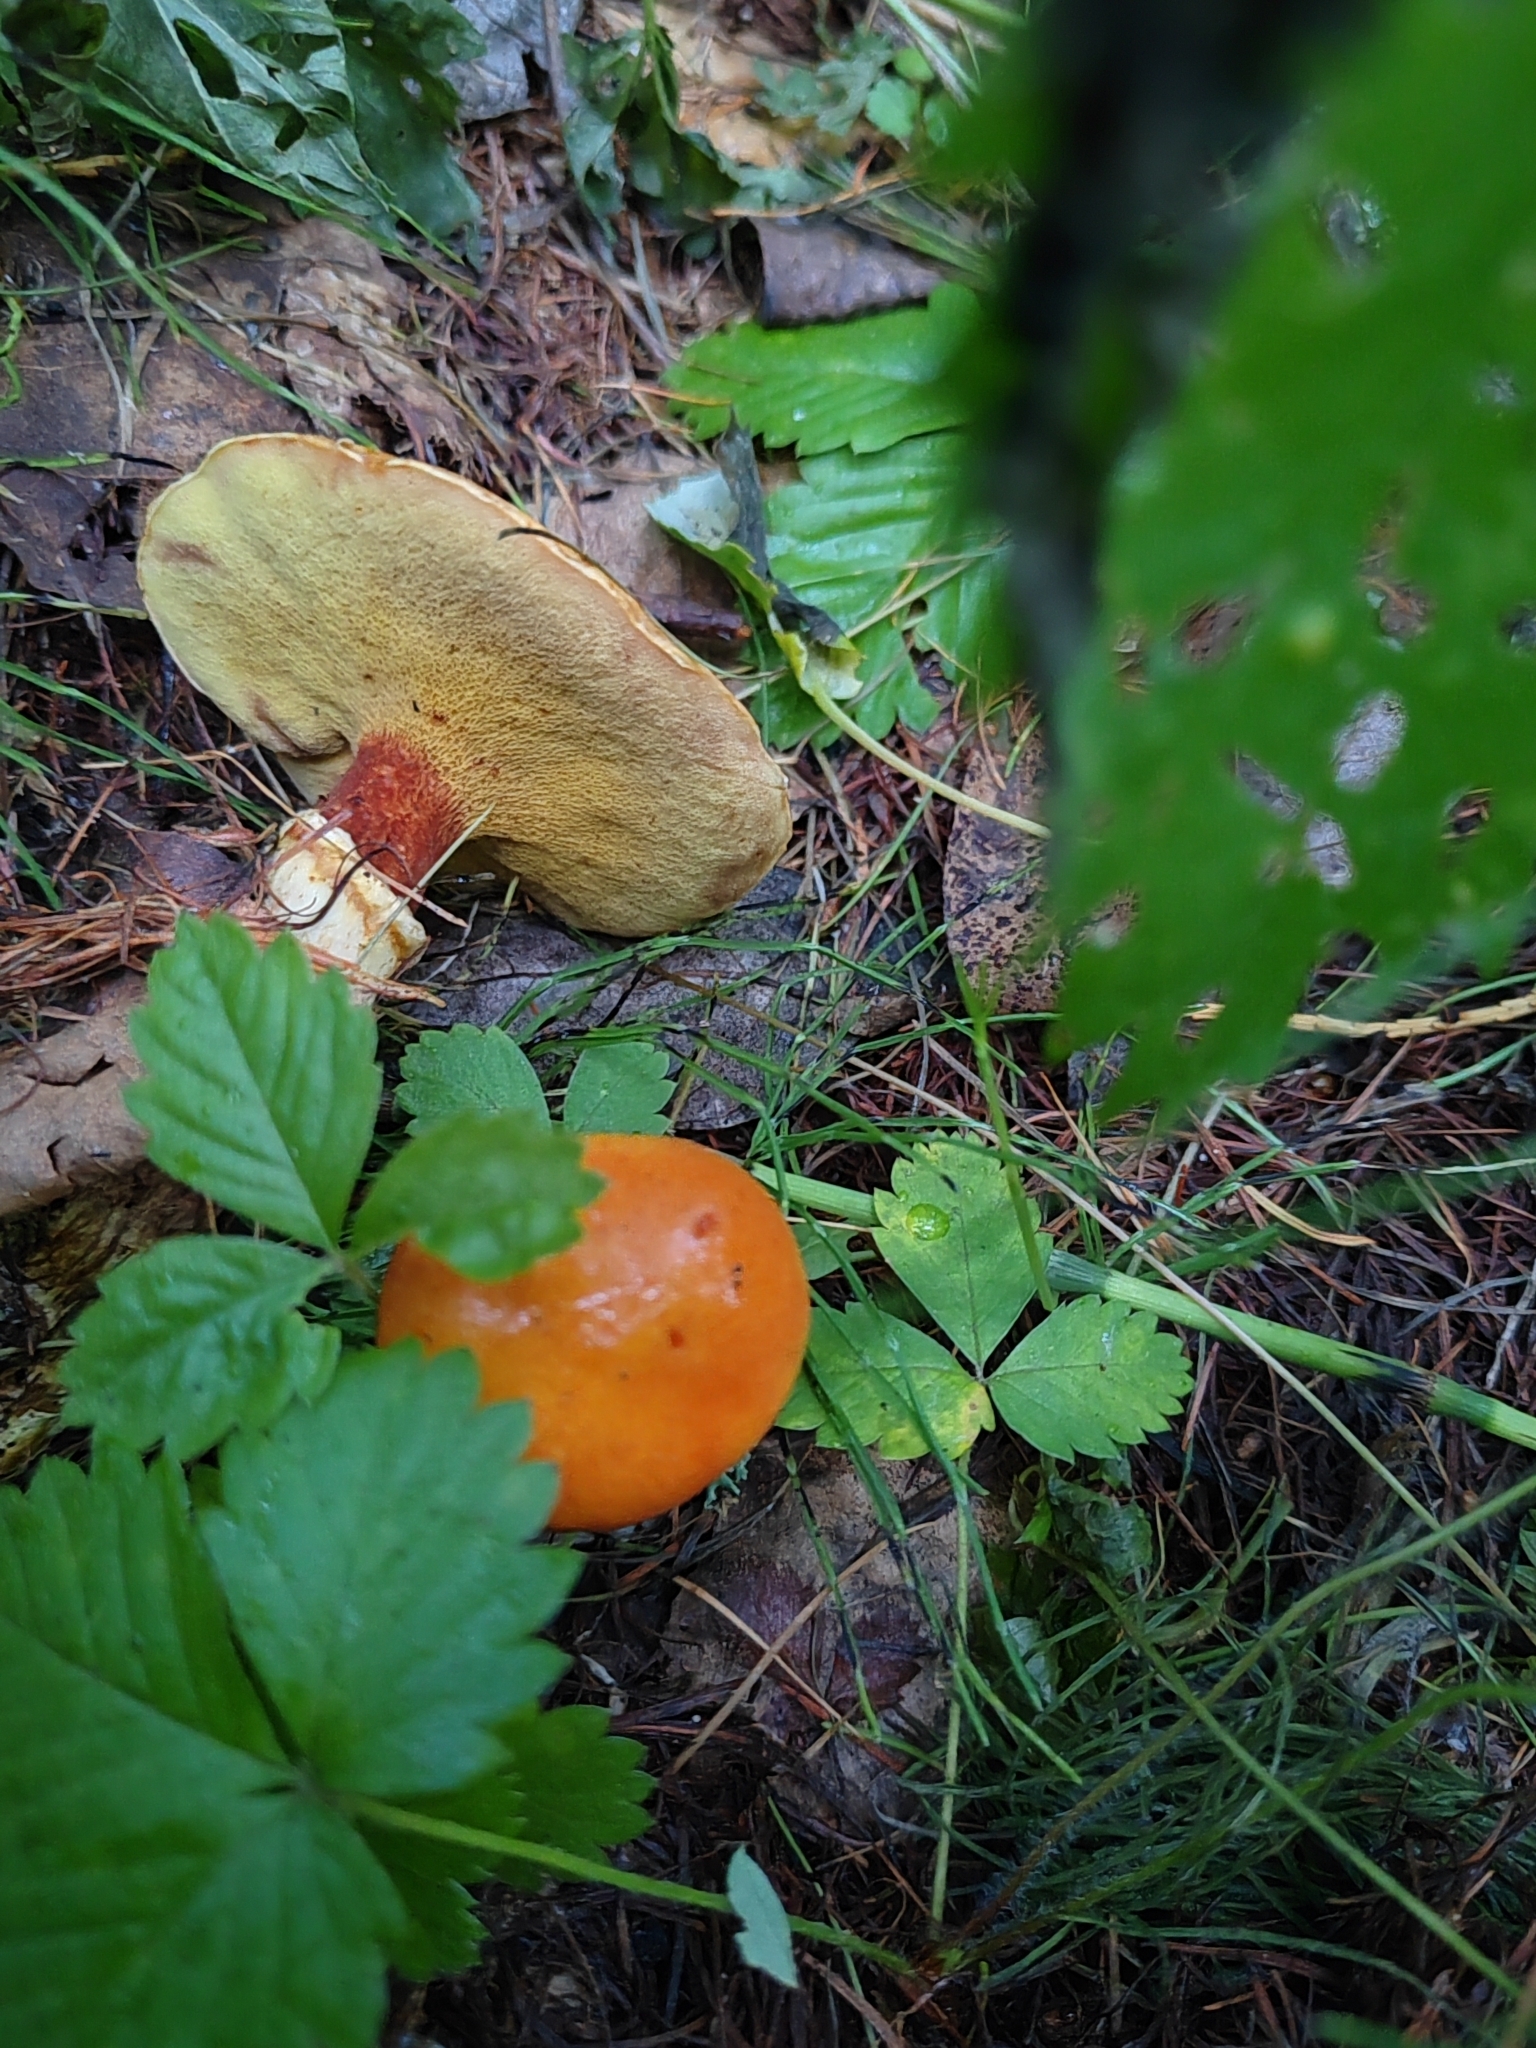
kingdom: Fungi
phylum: Basidiomycota
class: Agaricomycetes
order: Boletales
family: Suillaceae
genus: Suillus
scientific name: Suillus grevillei
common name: Larch bolete
